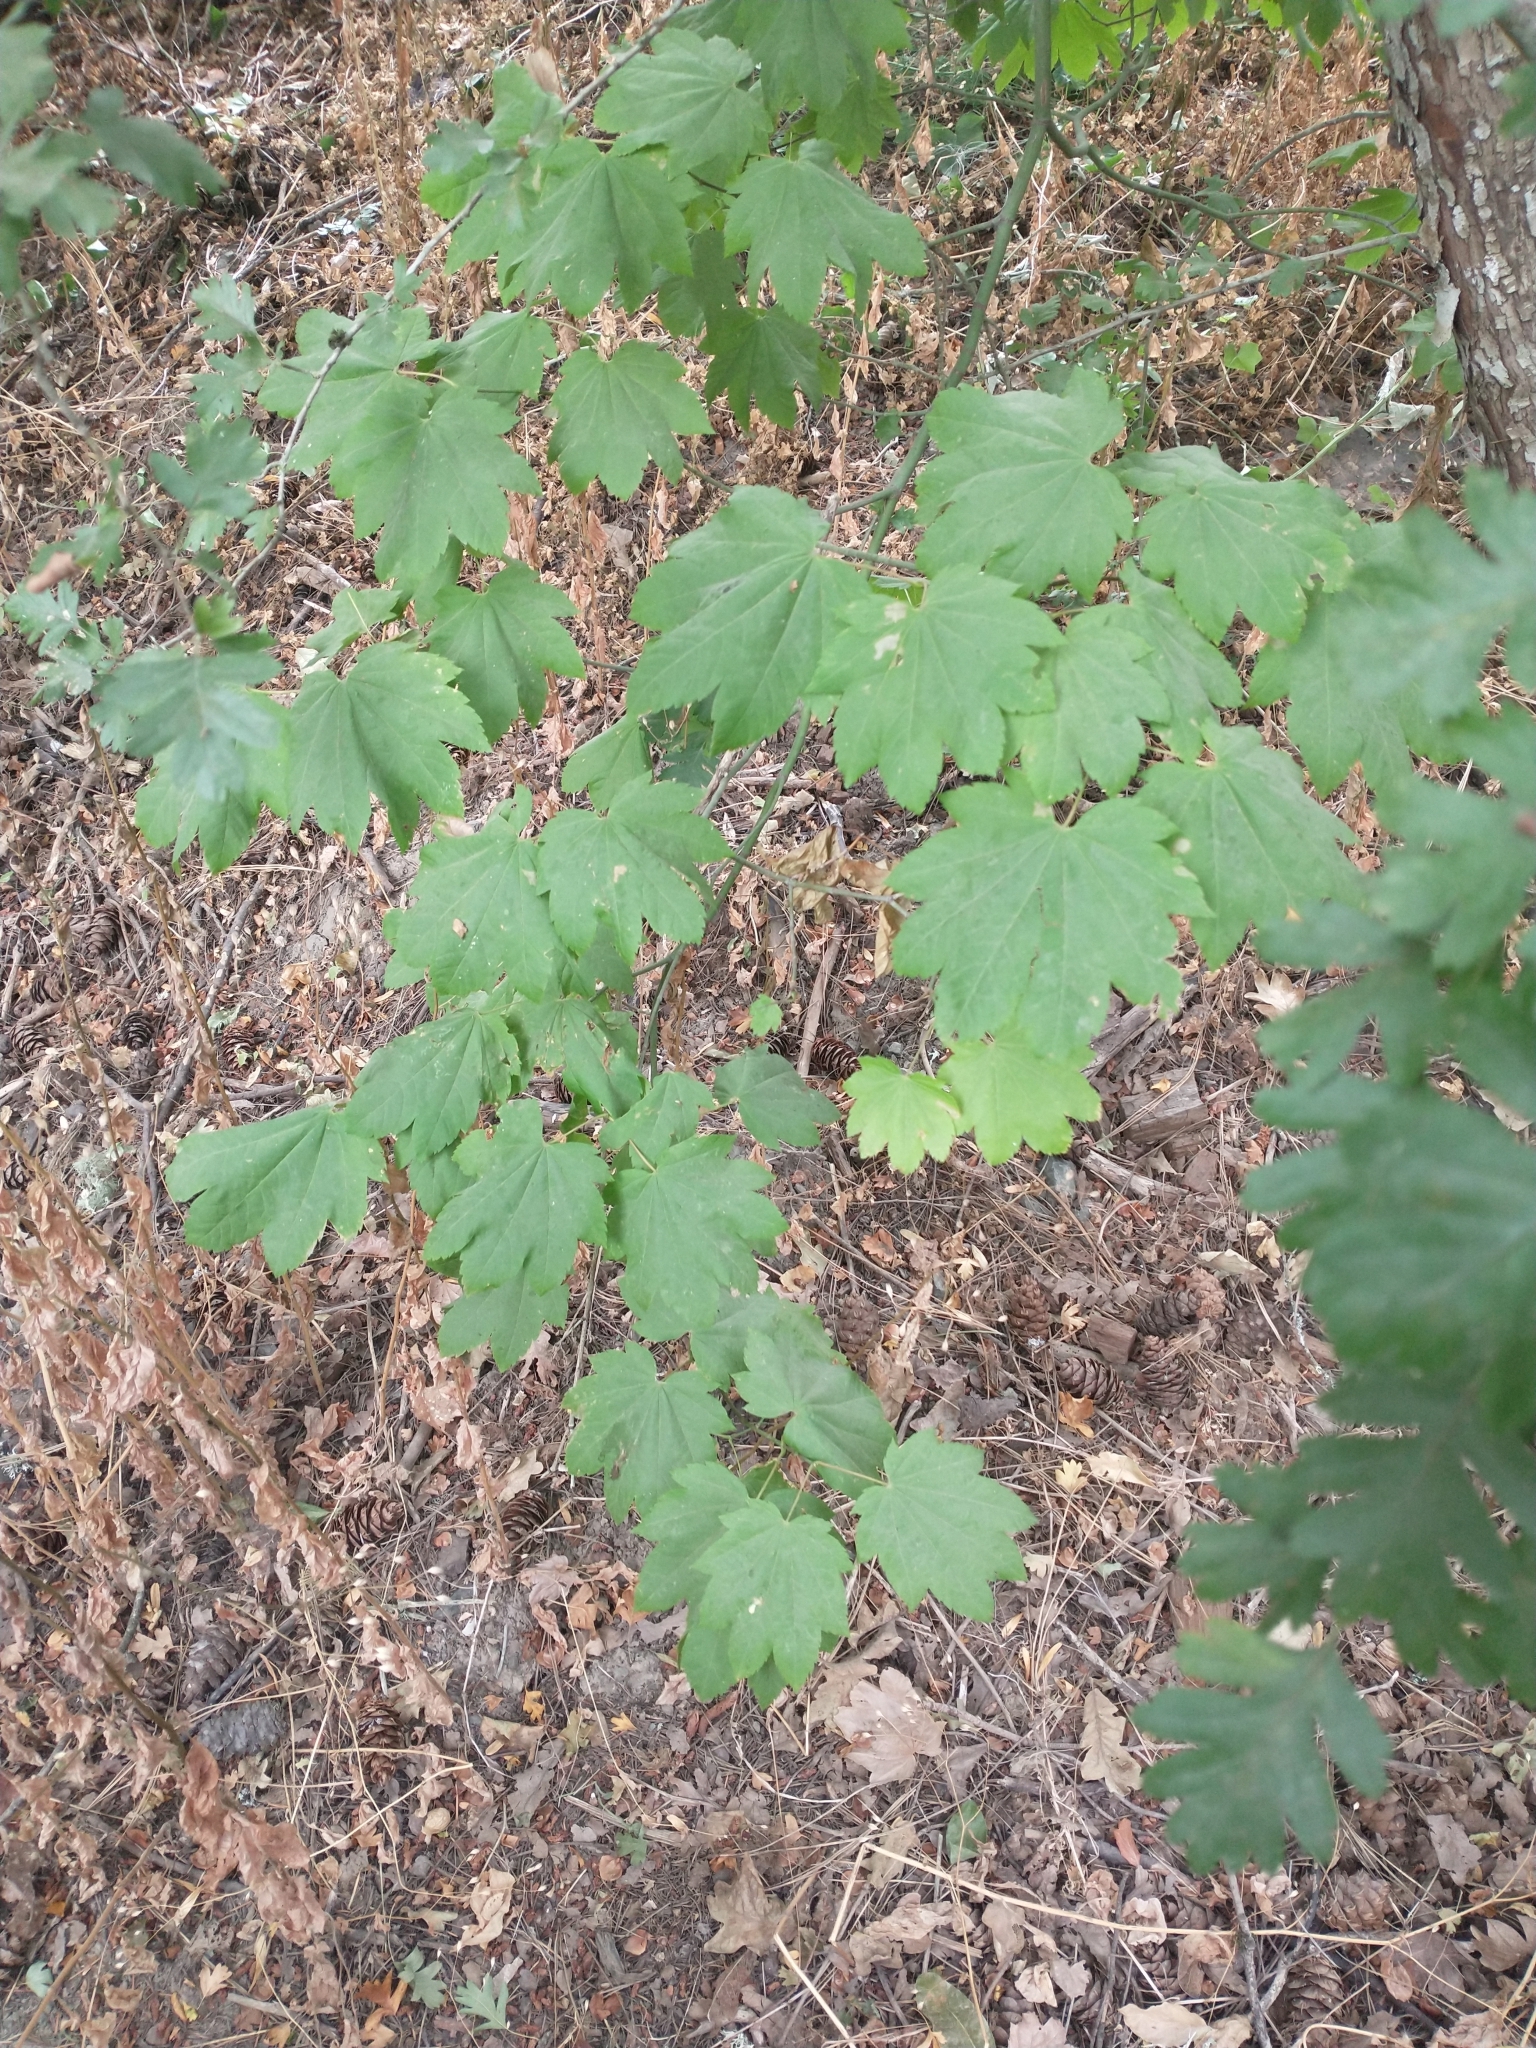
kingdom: Plantae
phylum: Tracheophyta
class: Magnoliopsida
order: Sapindales
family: Sapindaceae
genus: Acer
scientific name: Acer circinatum
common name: Vine maple
